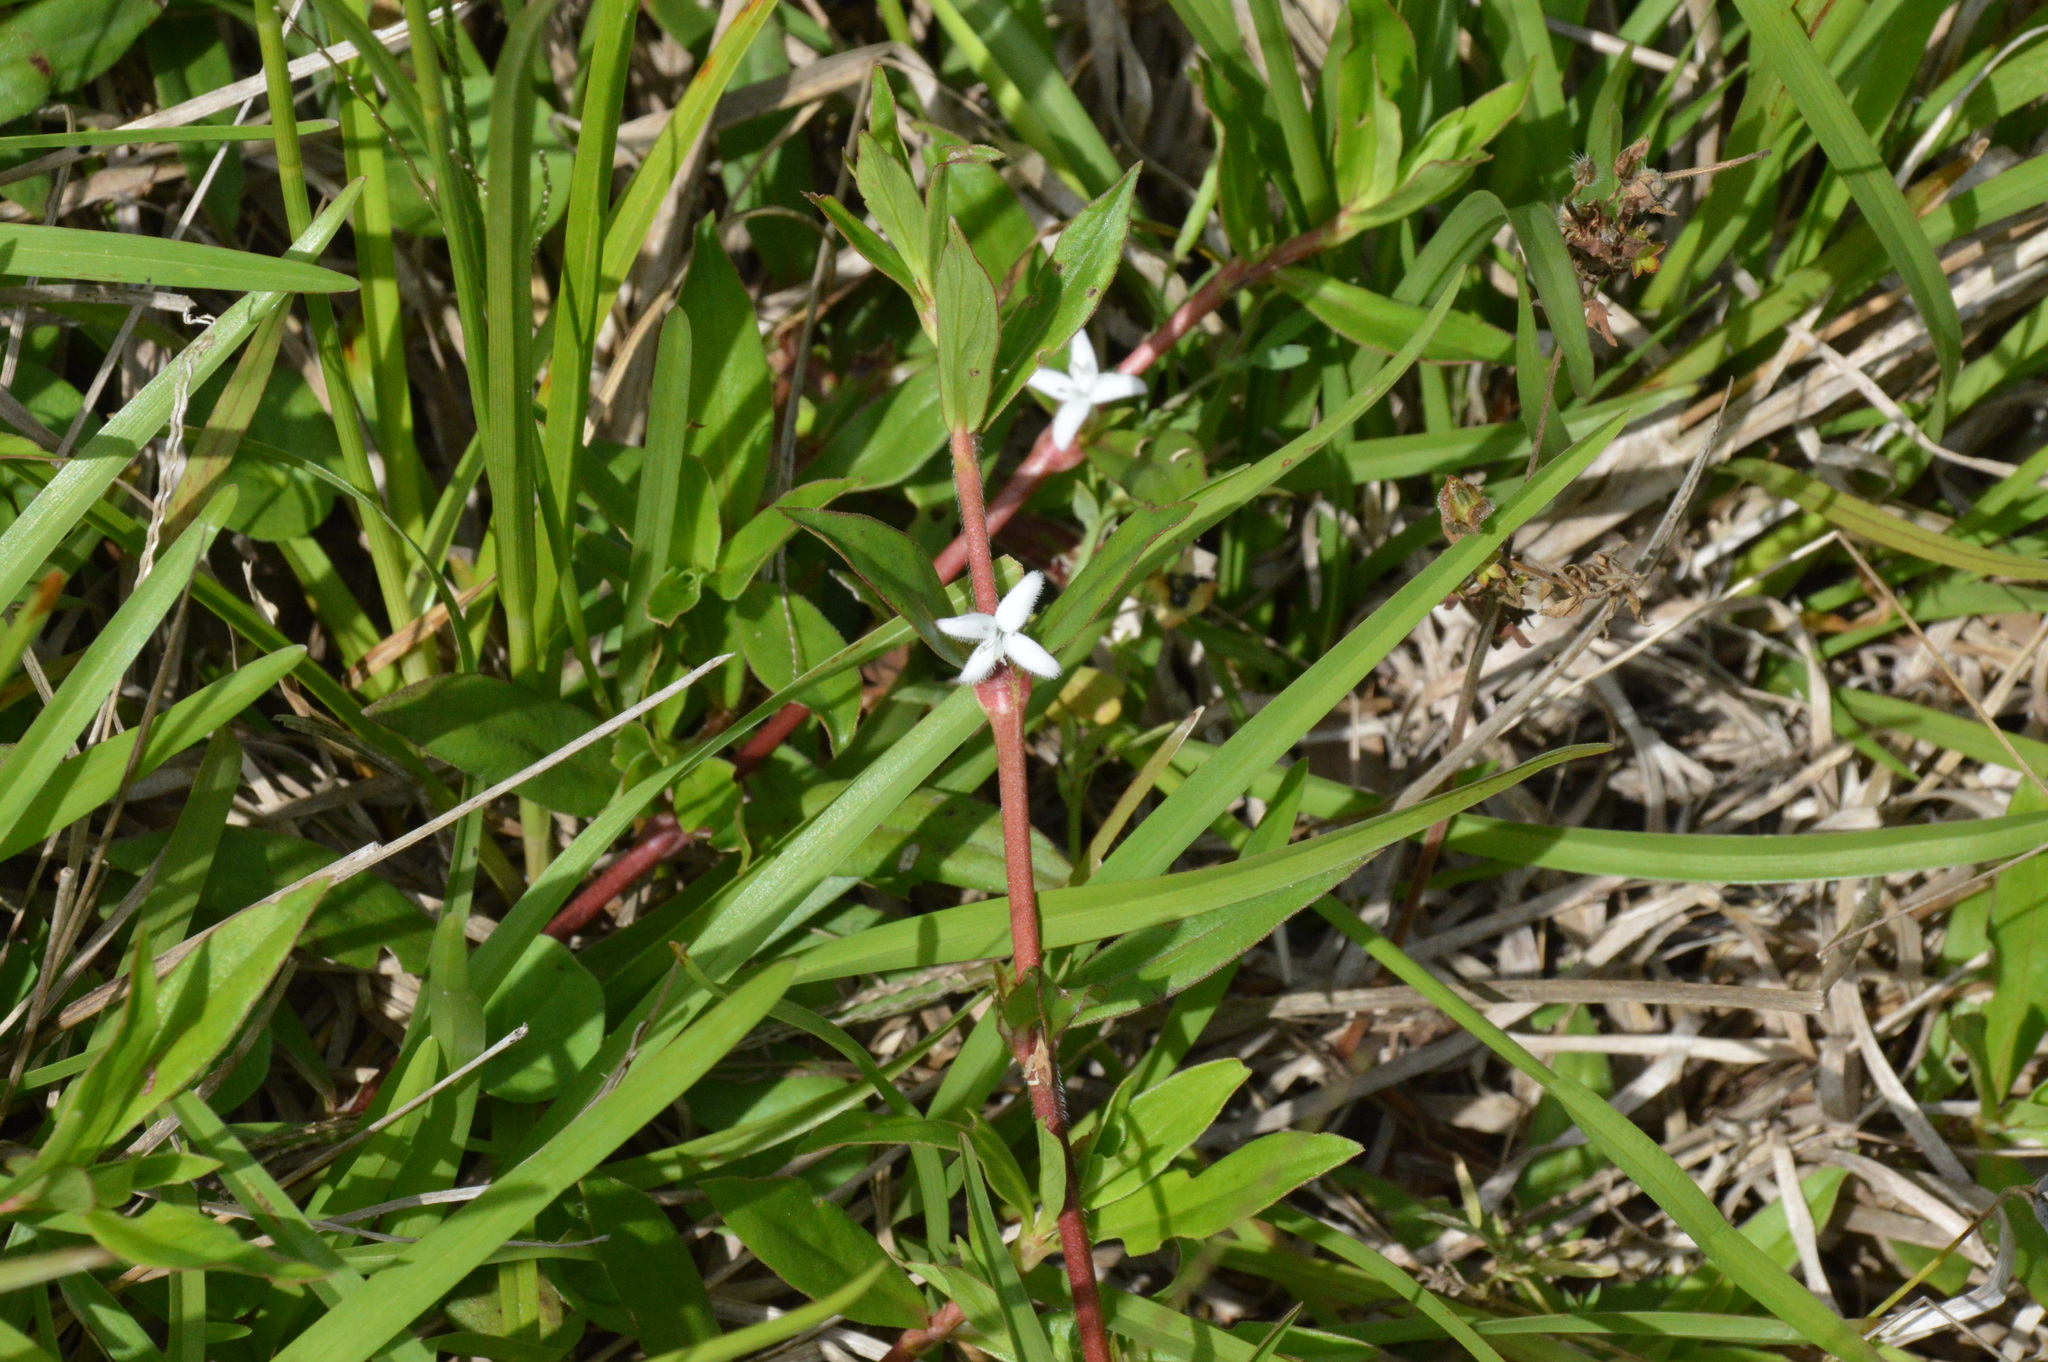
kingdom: Plantae
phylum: Tracheophyta
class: Magnoliopsida
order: Gentianales
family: Rubiaceae
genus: Diodia
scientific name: Diodia virginiana
